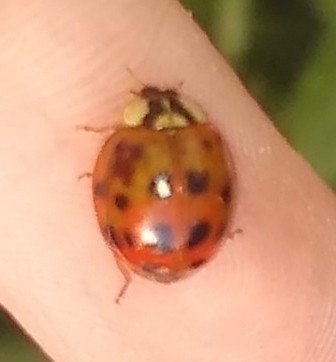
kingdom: Animalia
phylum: Arthropoda
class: Insecta
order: Coleoptera
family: Coccinellidae
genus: Harmonia
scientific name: Harmonia axyridis
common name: Harlequin ladybird
